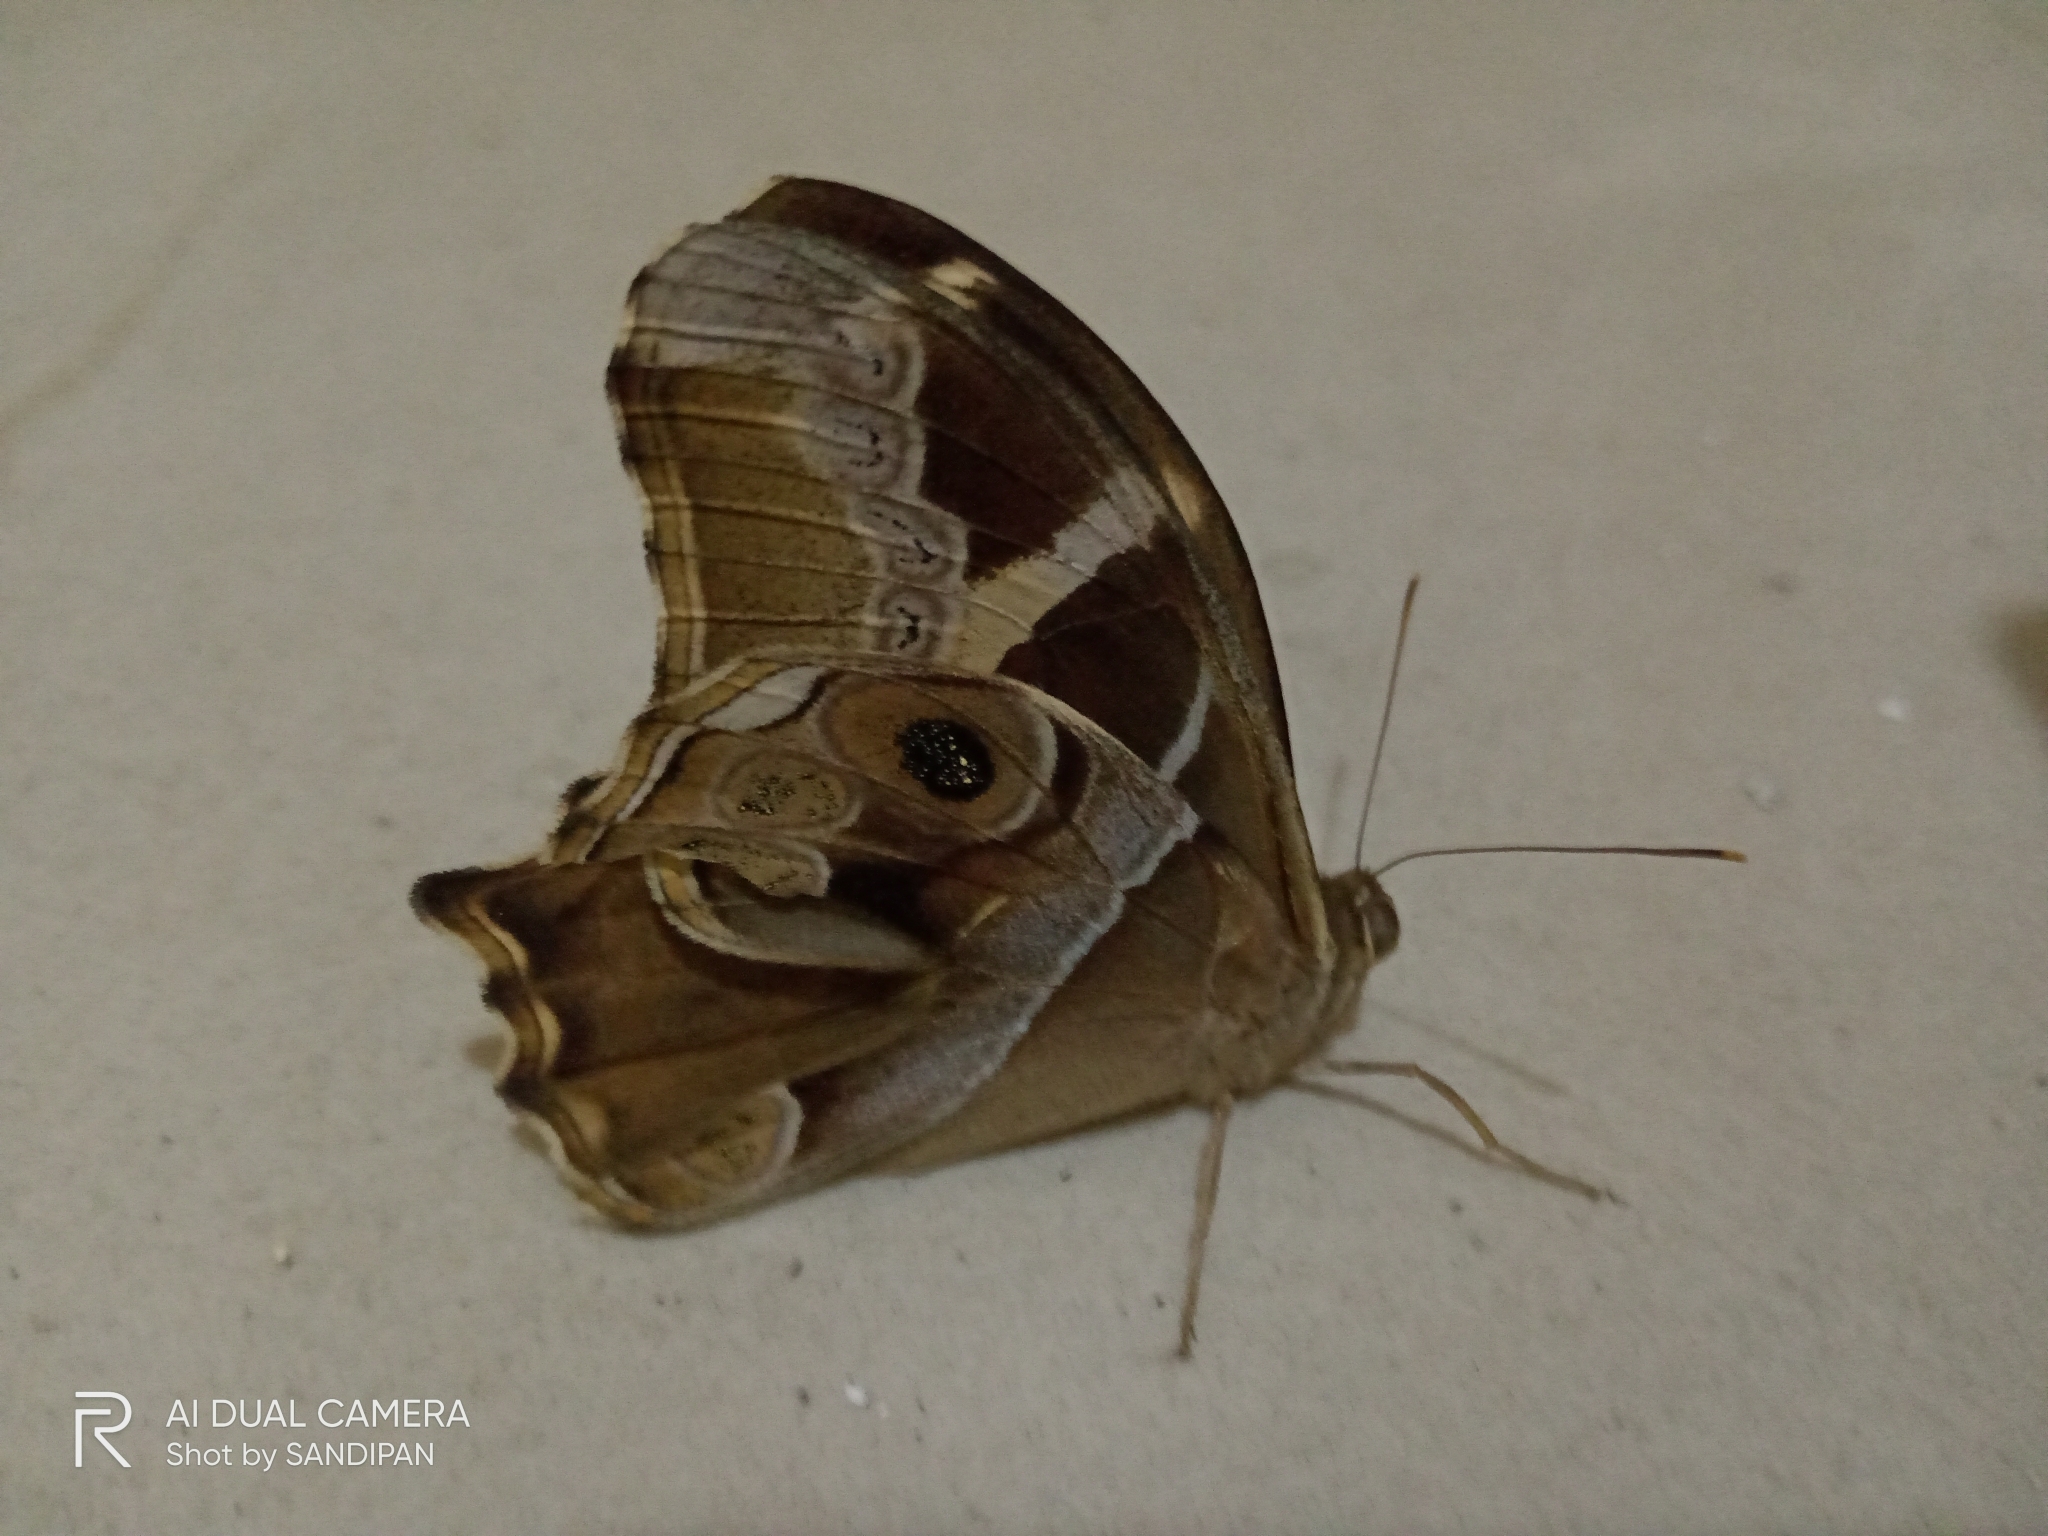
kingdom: Animalia
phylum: Arthropoda
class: Insecta
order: Lepidoptera
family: Nymphalidae
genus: Lethe
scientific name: Lethe europa
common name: Bamboo treebrown
